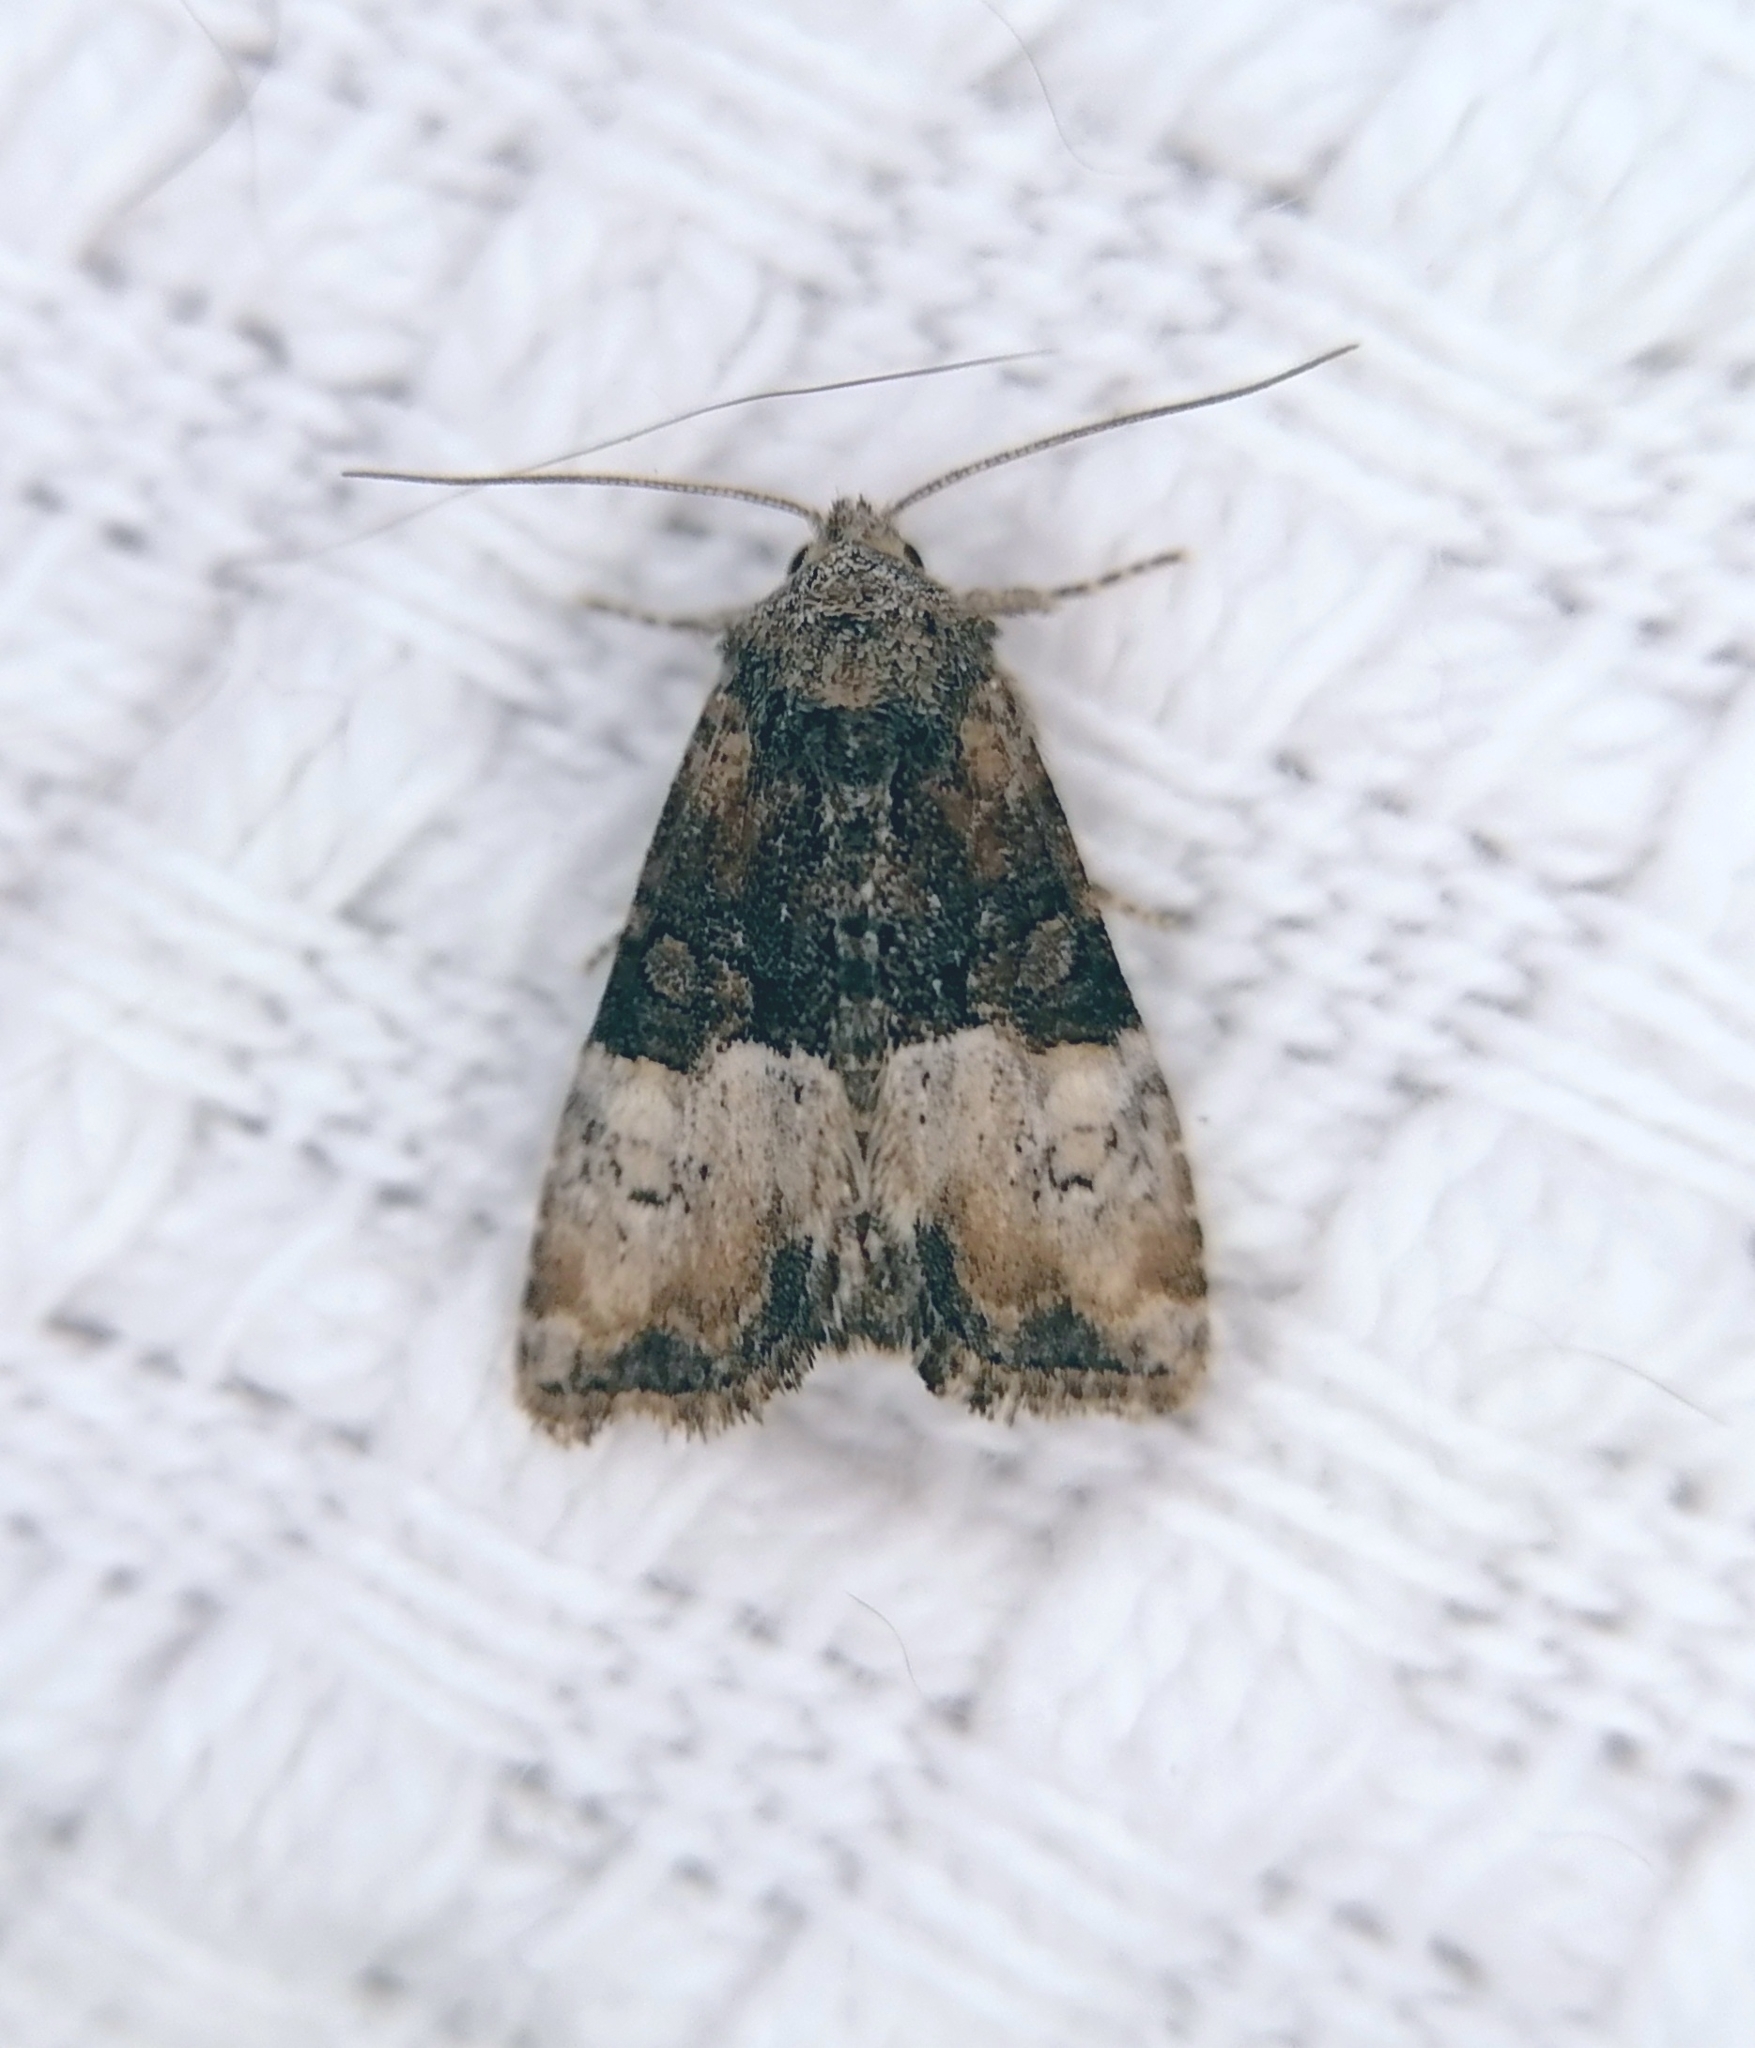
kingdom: Animalia
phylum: Arthropoda
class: Insecta
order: Lepidoptera
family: Noctuidae
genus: Mesoligia
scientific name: Mesoligia furuncula
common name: Cloaked minor
